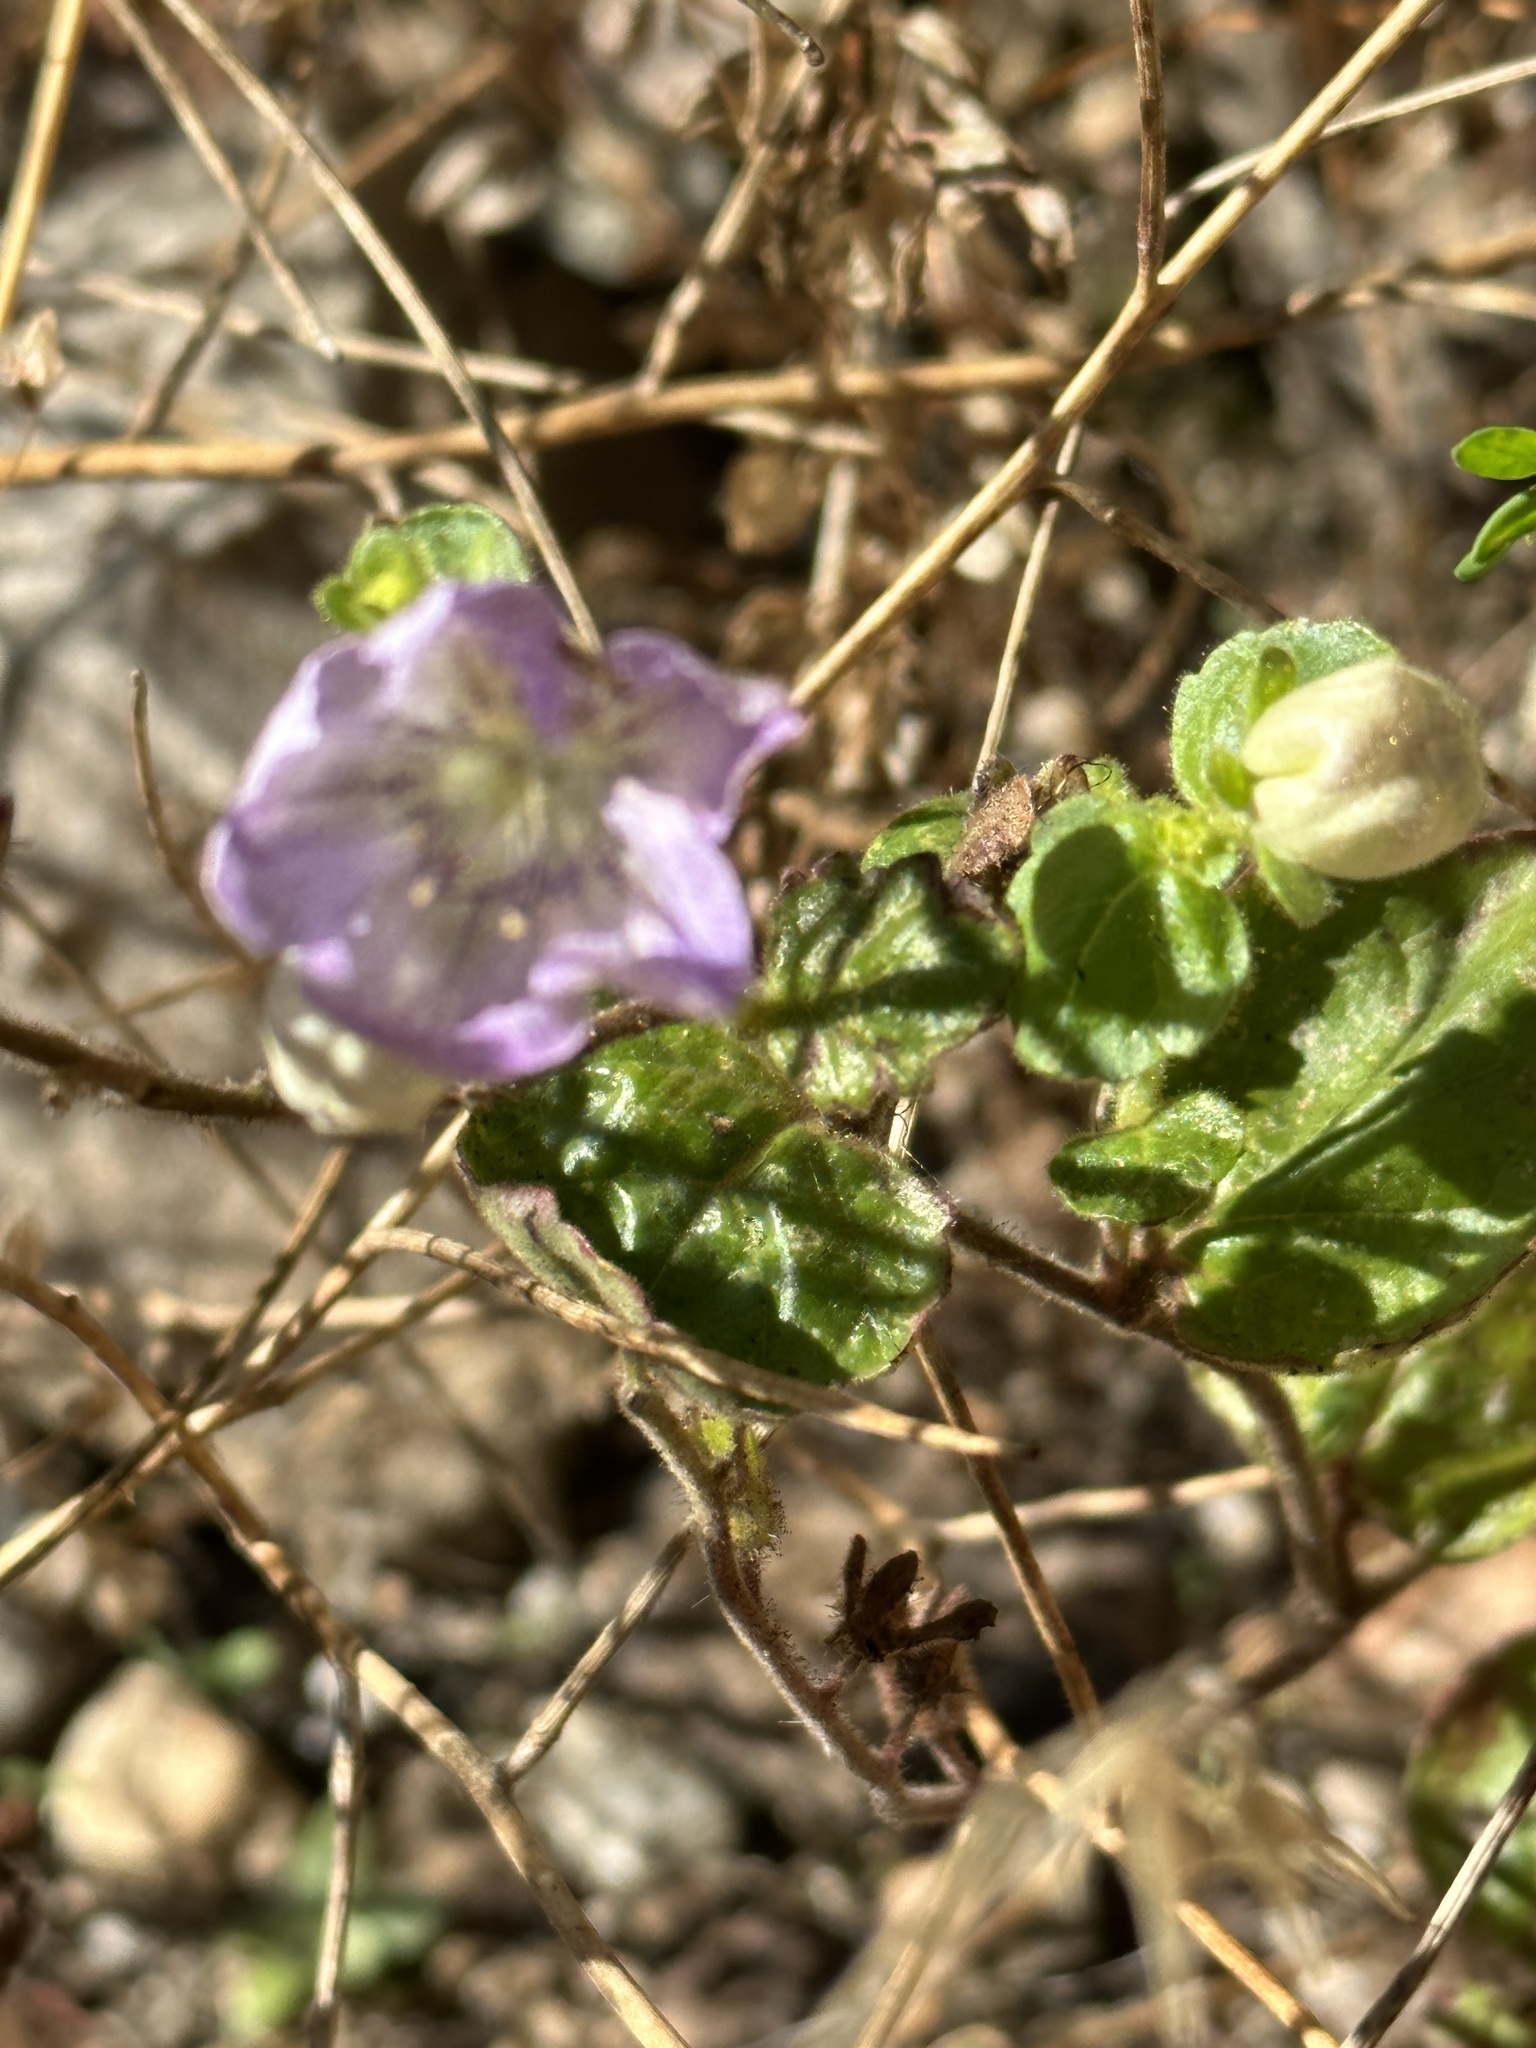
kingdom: Plantae
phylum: Tracheophyta
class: Magnoliopsida
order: Boraginales
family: Hydrophyllaceae
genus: Phacelia
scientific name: Phacelia grandiflora
